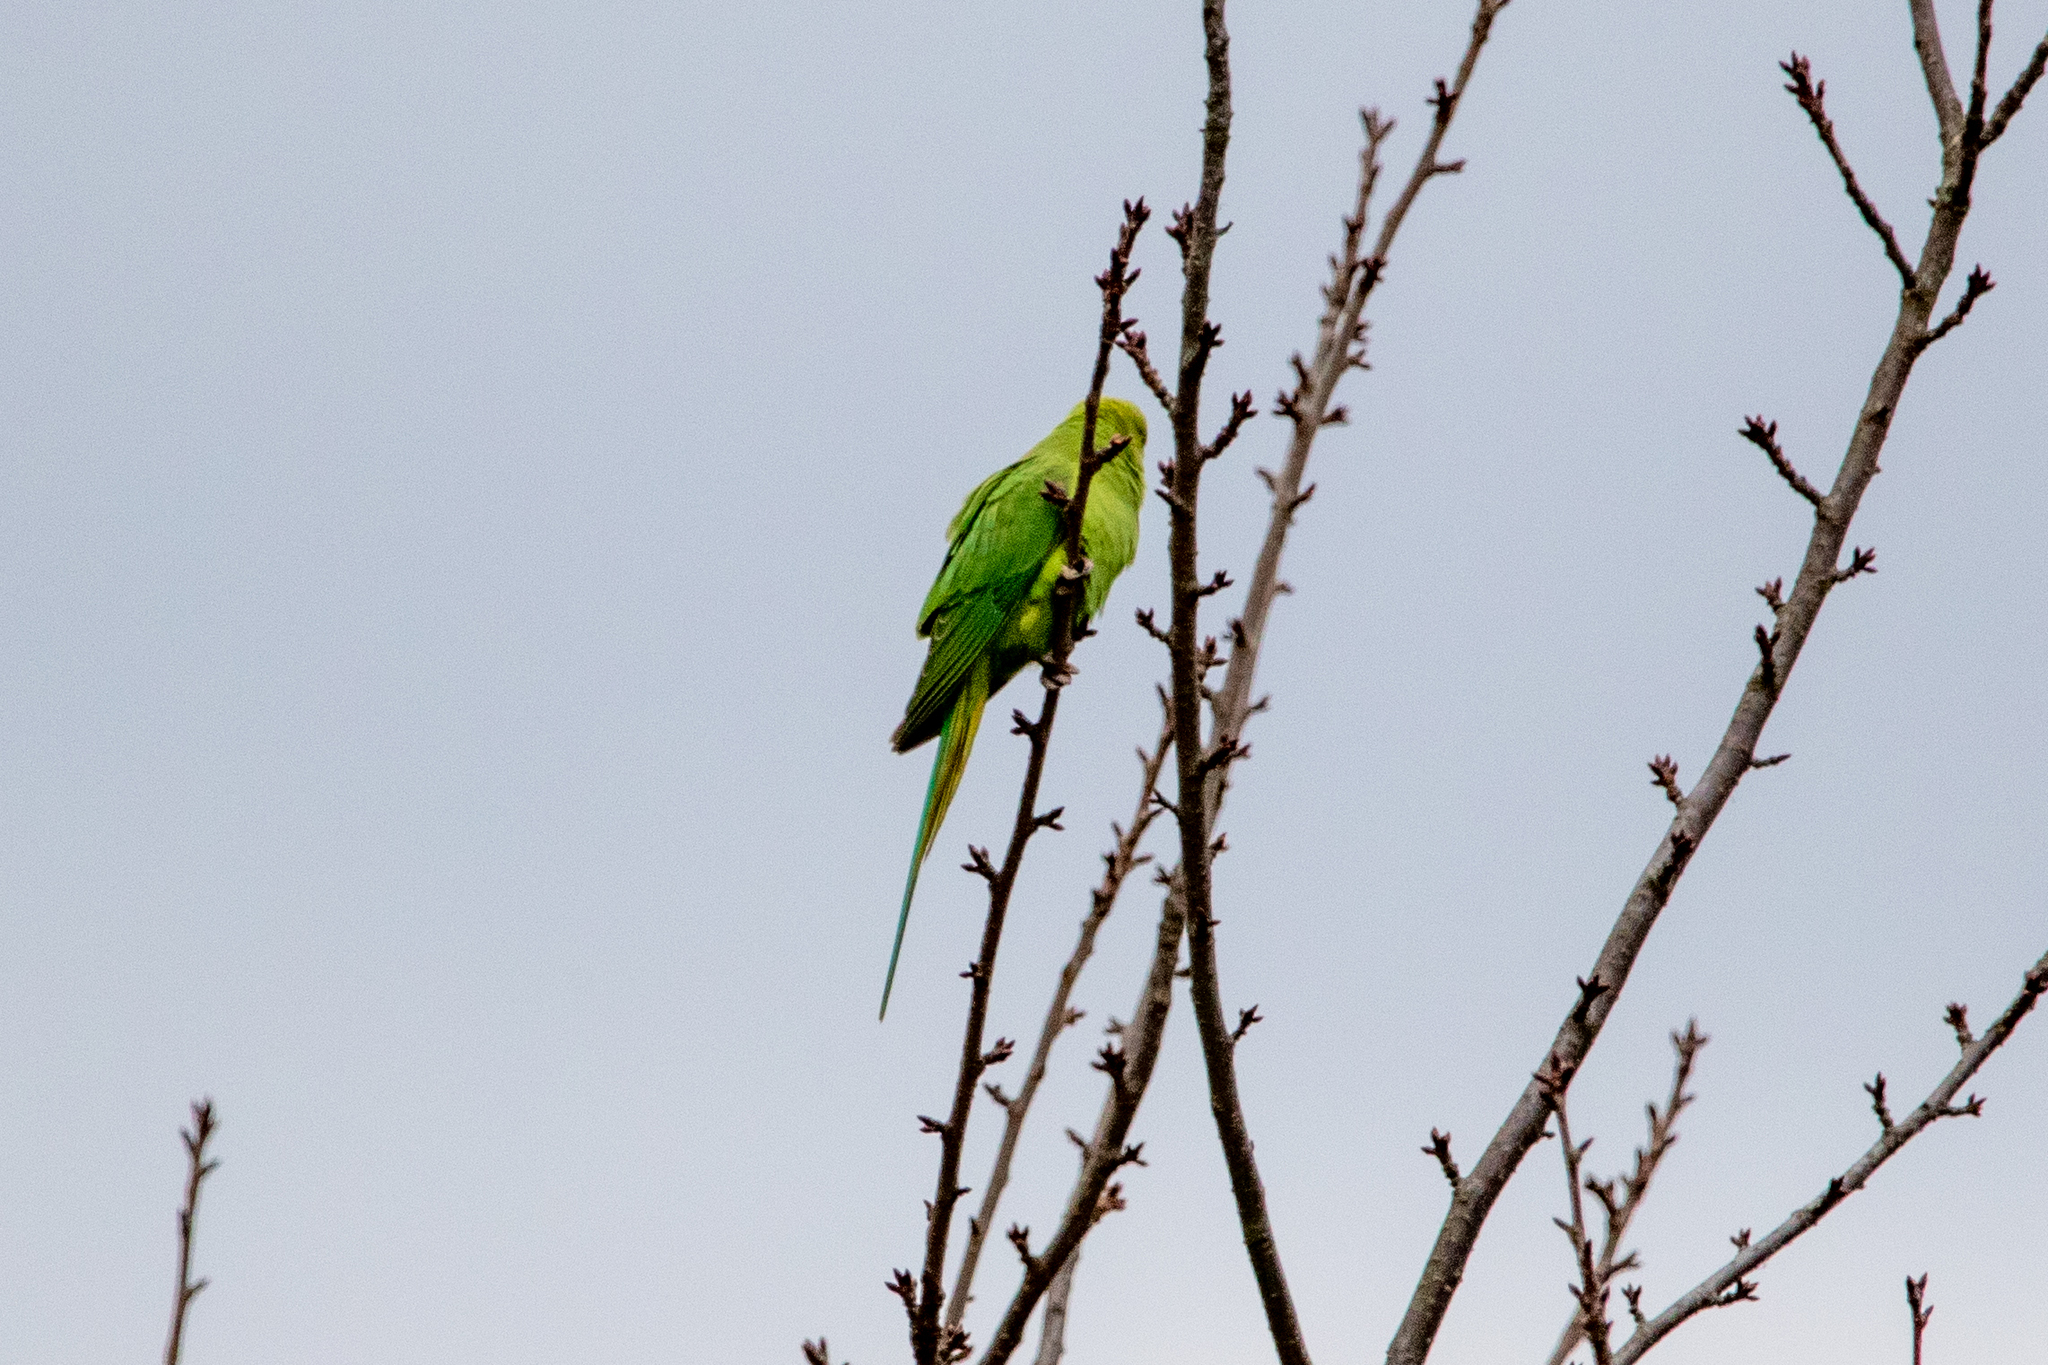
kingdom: Animalia
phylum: Chordata
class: Aves
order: Psittaciformes
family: Psittacidae
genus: Psittacula
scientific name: Psittacula krameri
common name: Rose-ringed parakeet
